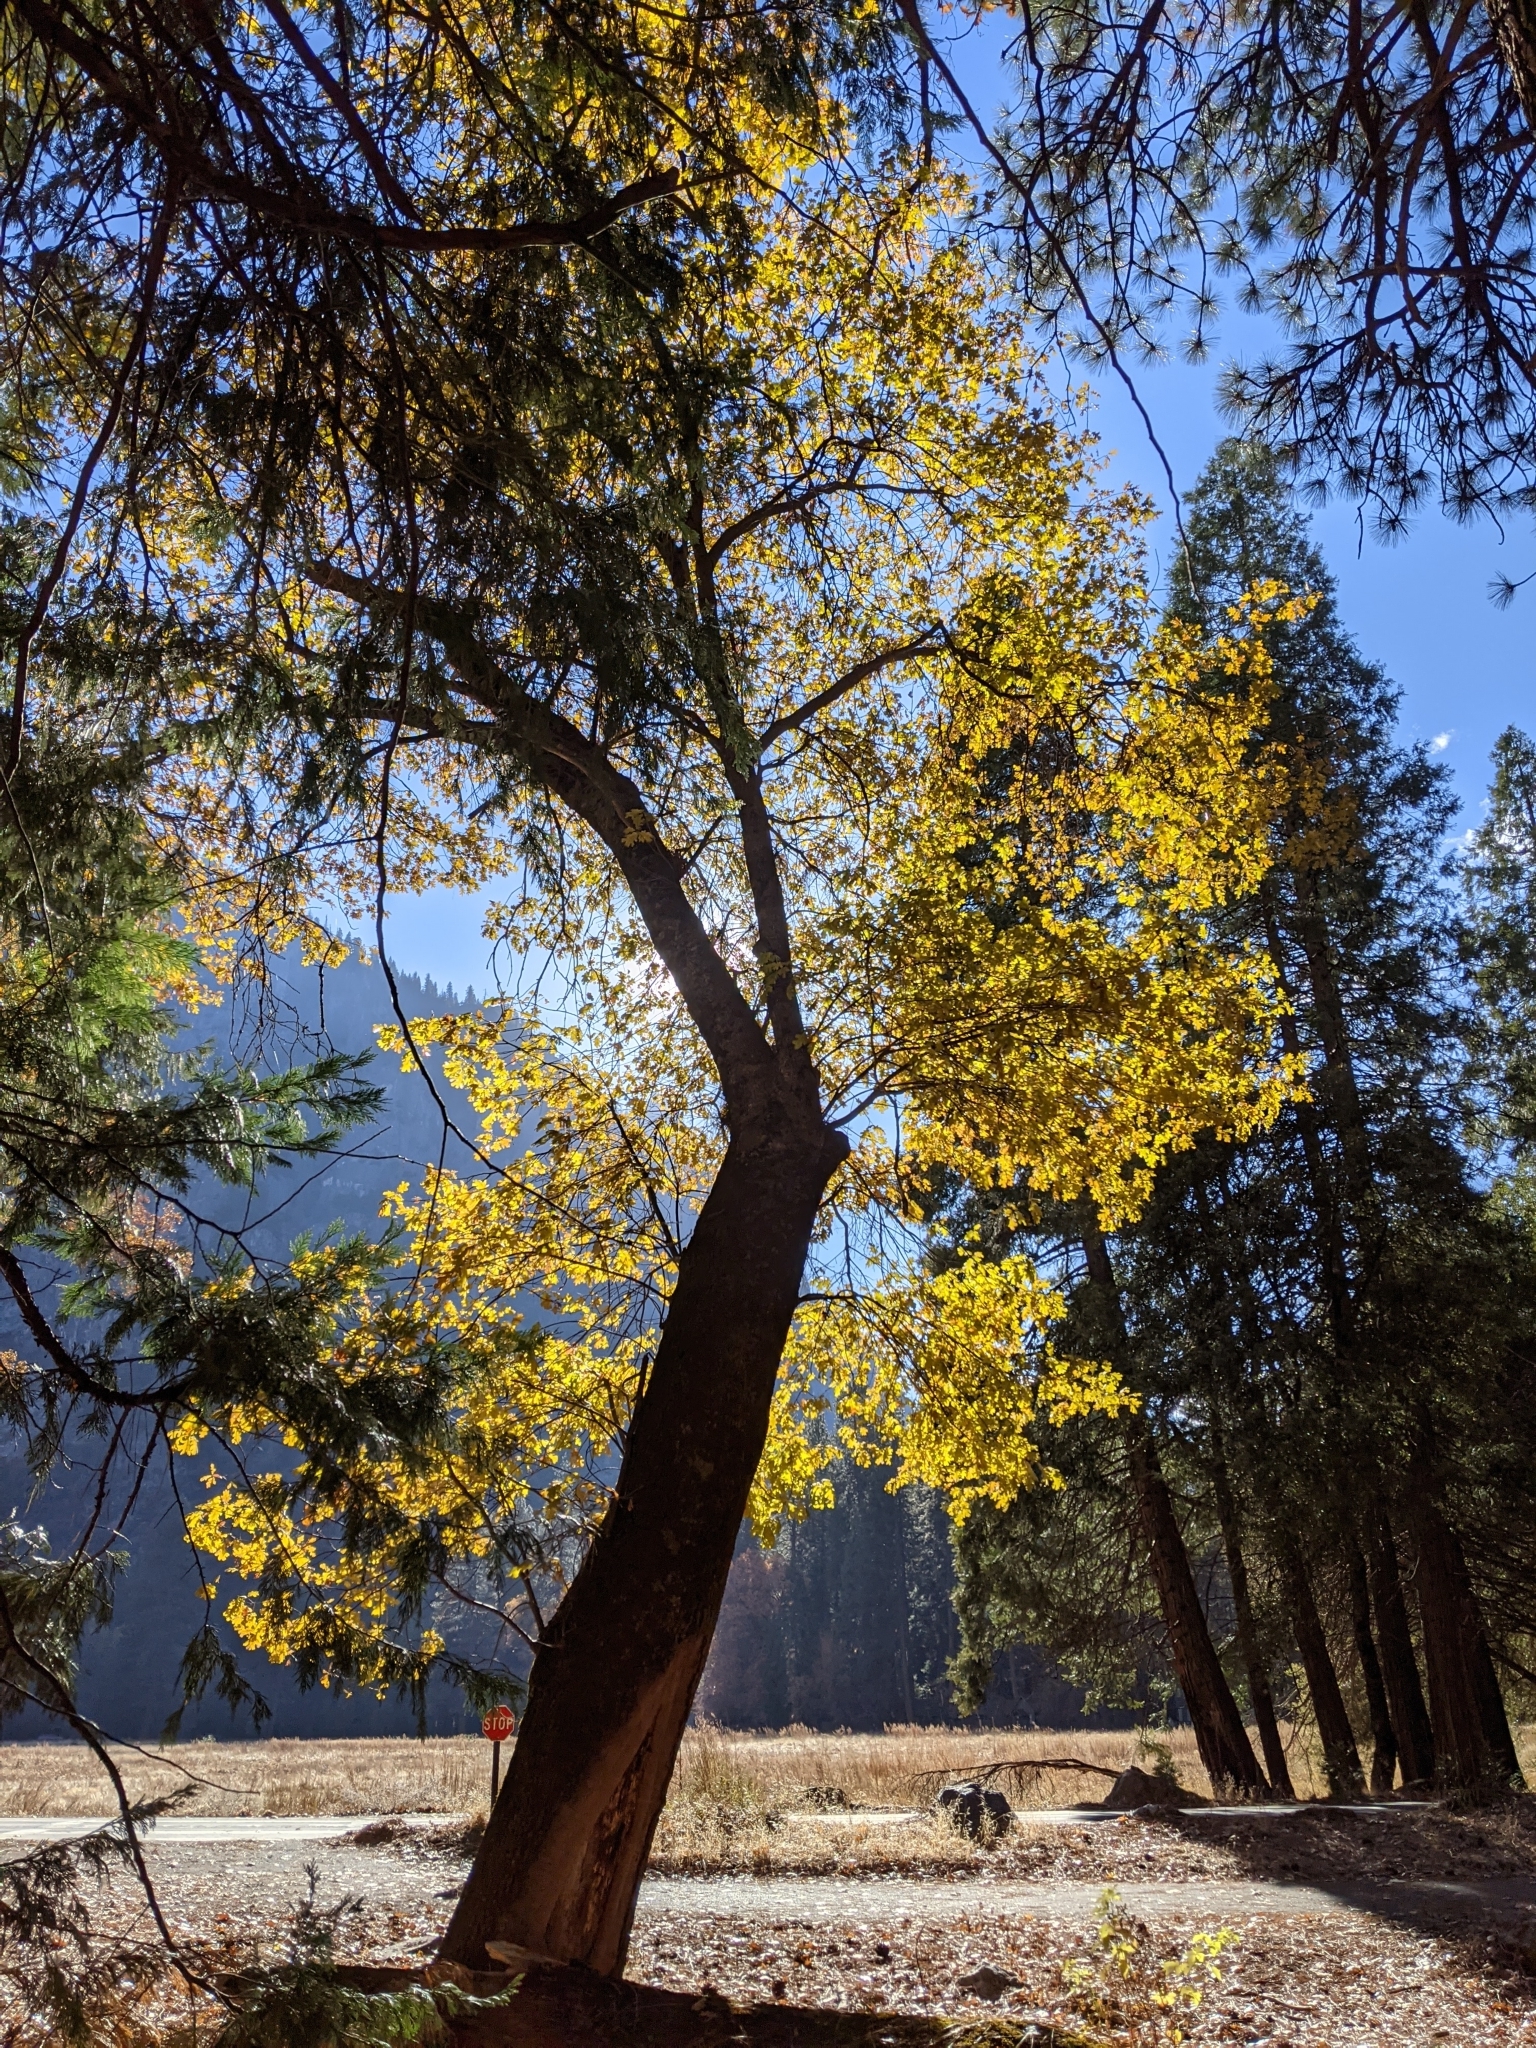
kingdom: Plantae
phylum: Tracheophyta
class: Magnoliopsida
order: Fagales
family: Fagaceae
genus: Quercus
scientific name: Quercus kelloggii
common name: California black oak
